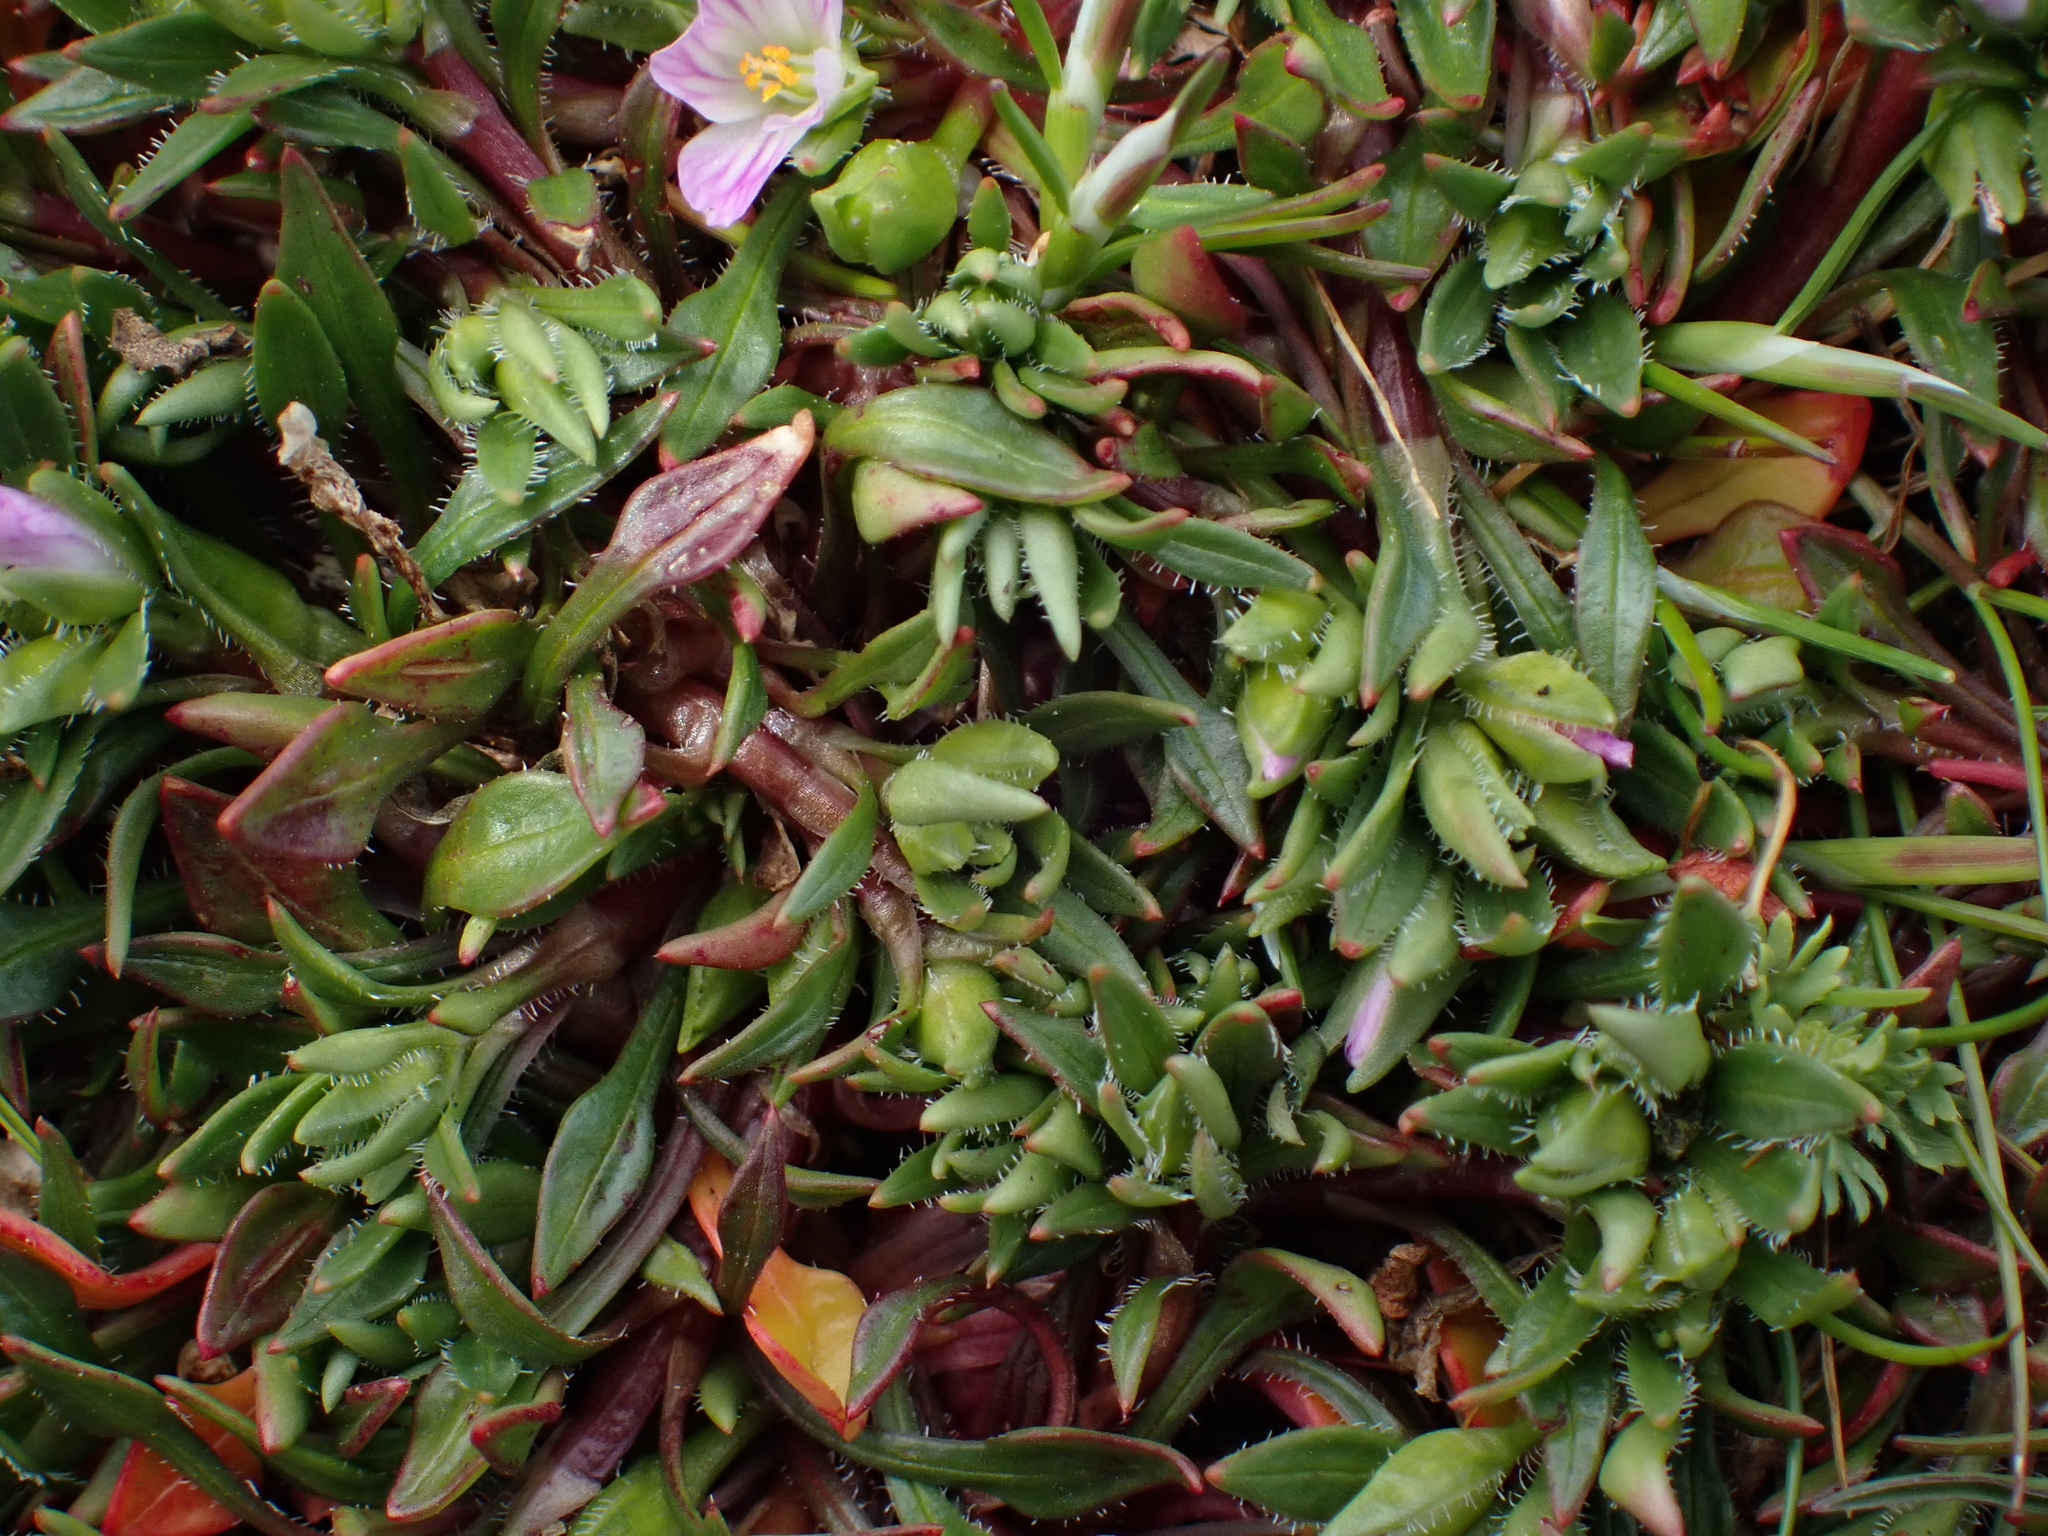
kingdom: Plantae
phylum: Tracheophyta
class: Magnoliopsida
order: Caryophyllales
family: Montiaceae
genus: Calandrinia
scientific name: Calandrinia menziesii
